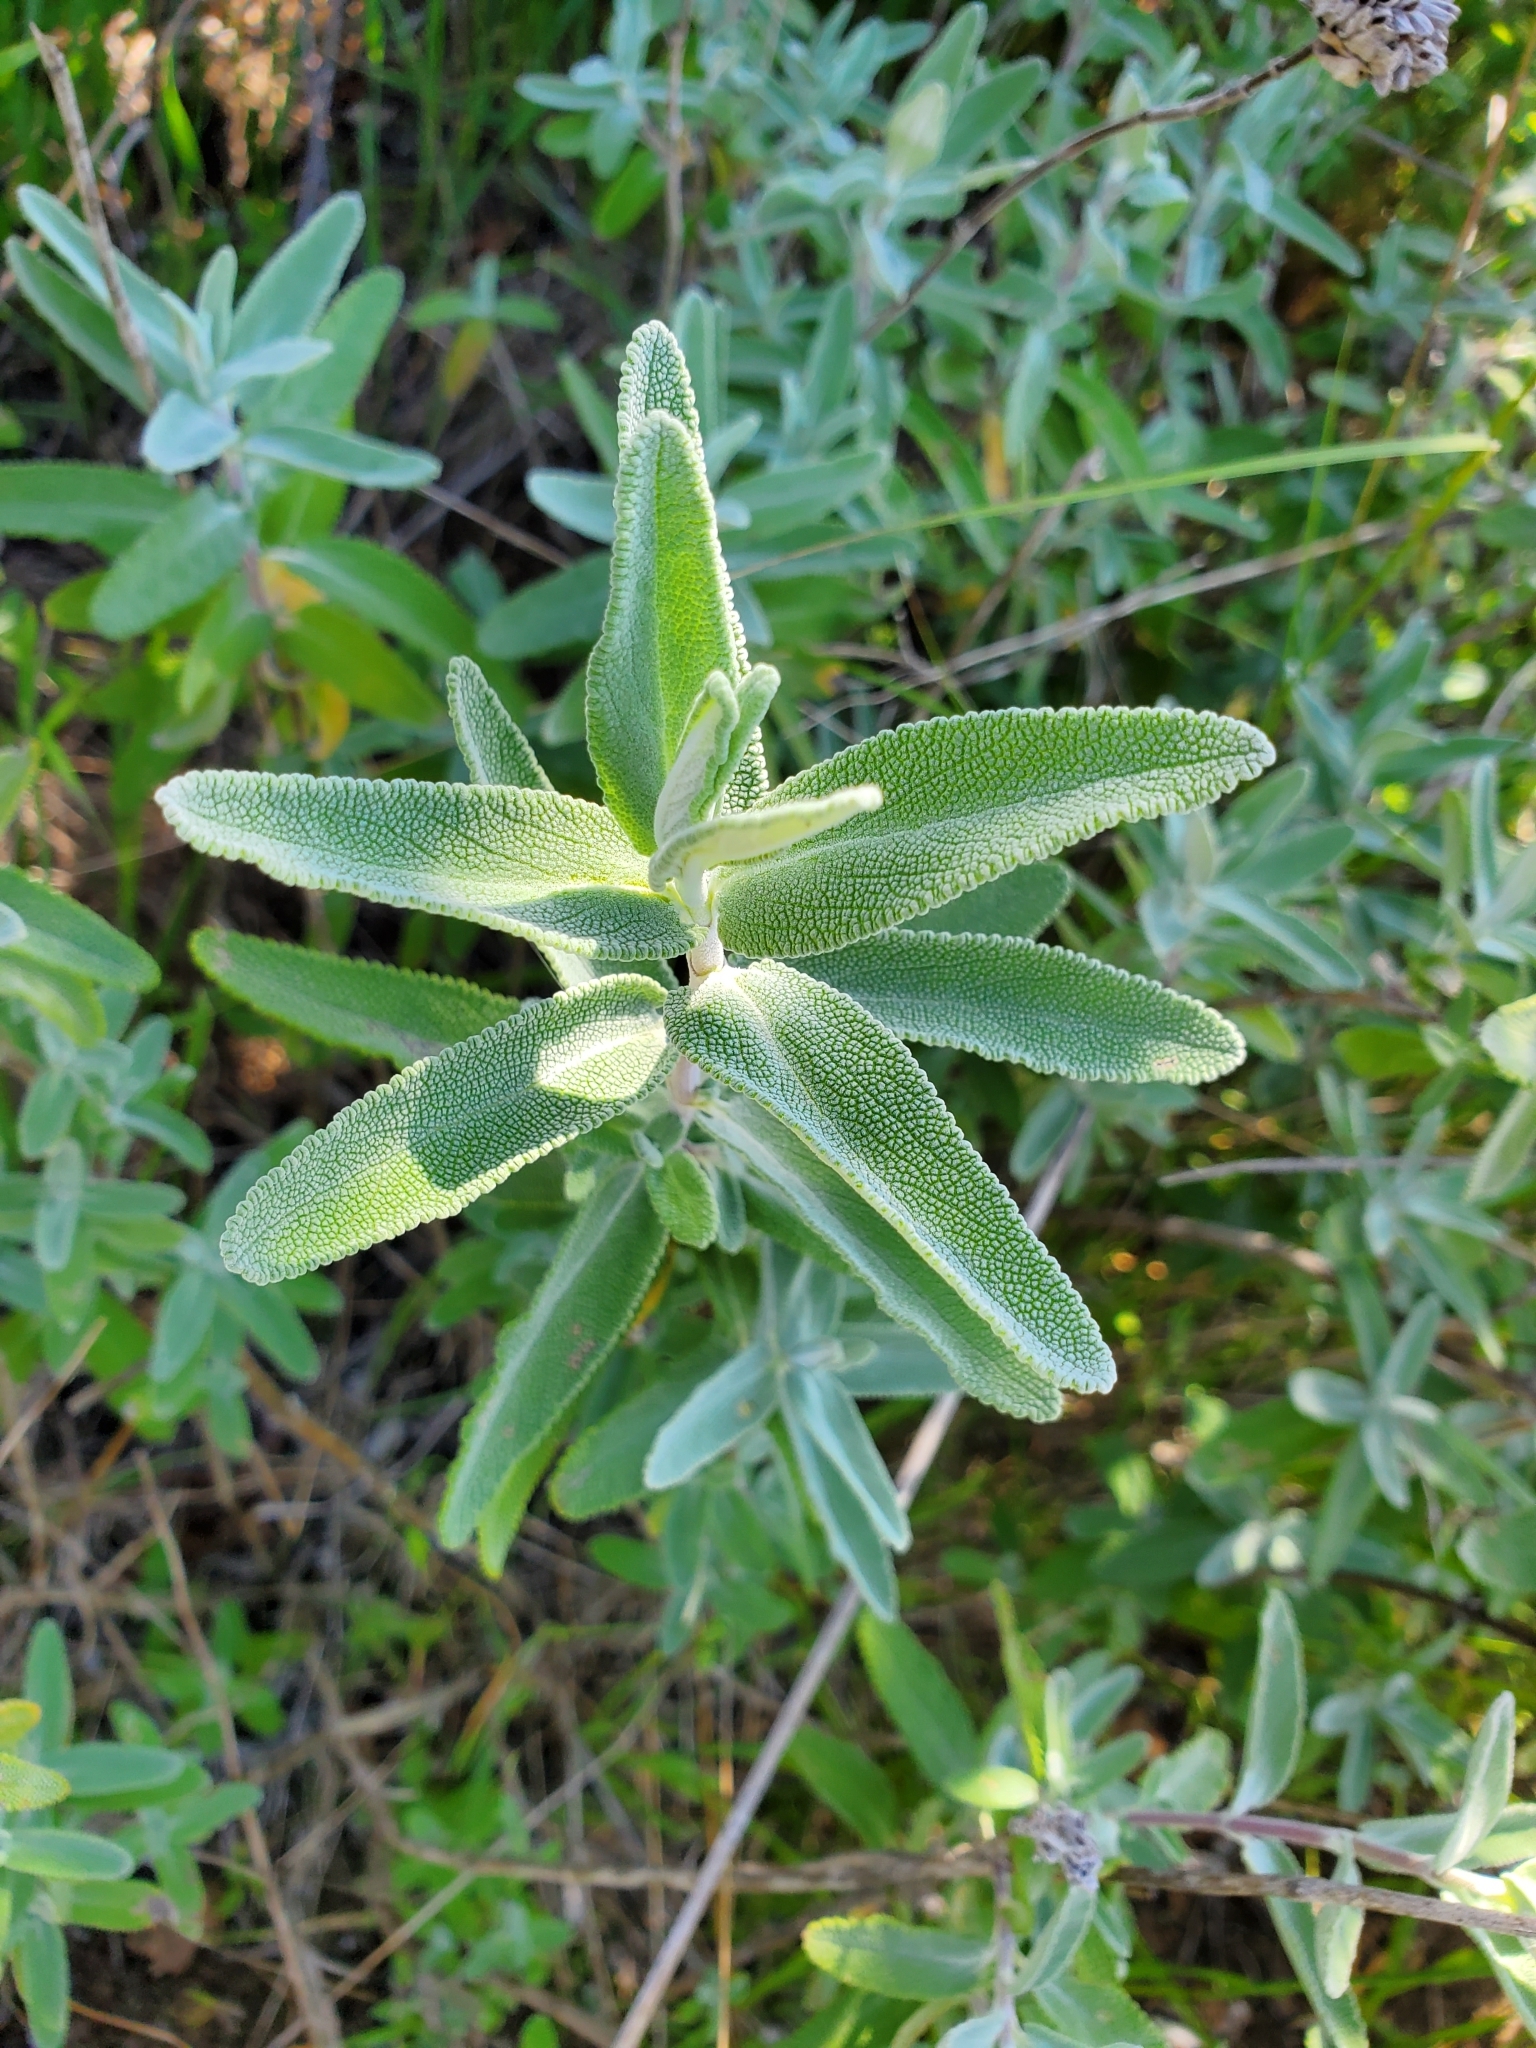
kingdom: Plantae
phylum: Tracheophyta
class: Magnoliopsida
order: Lamiales
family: Lamiaceae
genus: Salvia
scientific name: Salvia leucophylla
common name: Purple sage
